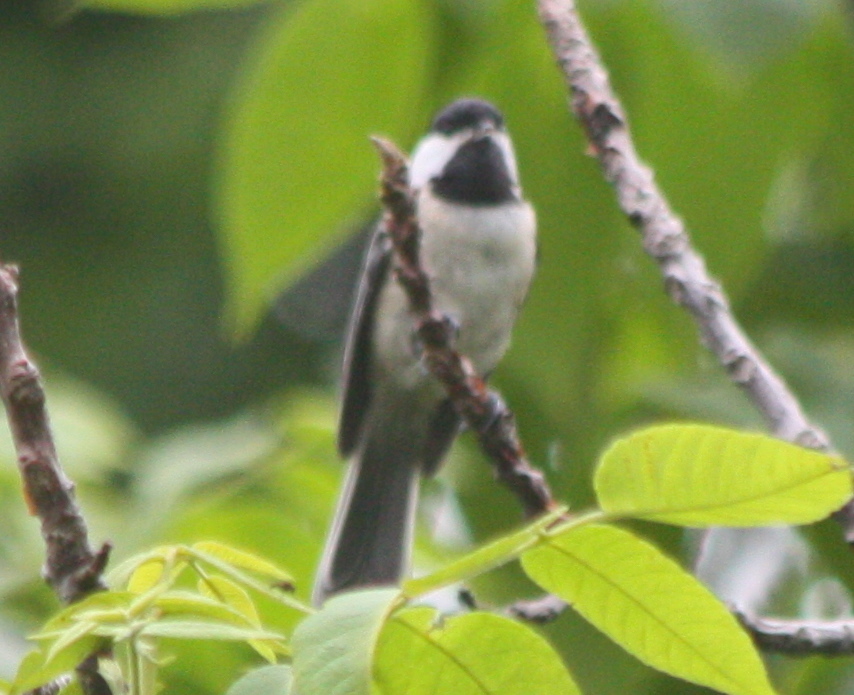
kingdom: Animalia
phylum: Chordata
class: Aves
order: Passeriformes
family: Paridae
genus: Poecile
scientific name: Poecile atricapillus
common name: Black-capped chickadee
